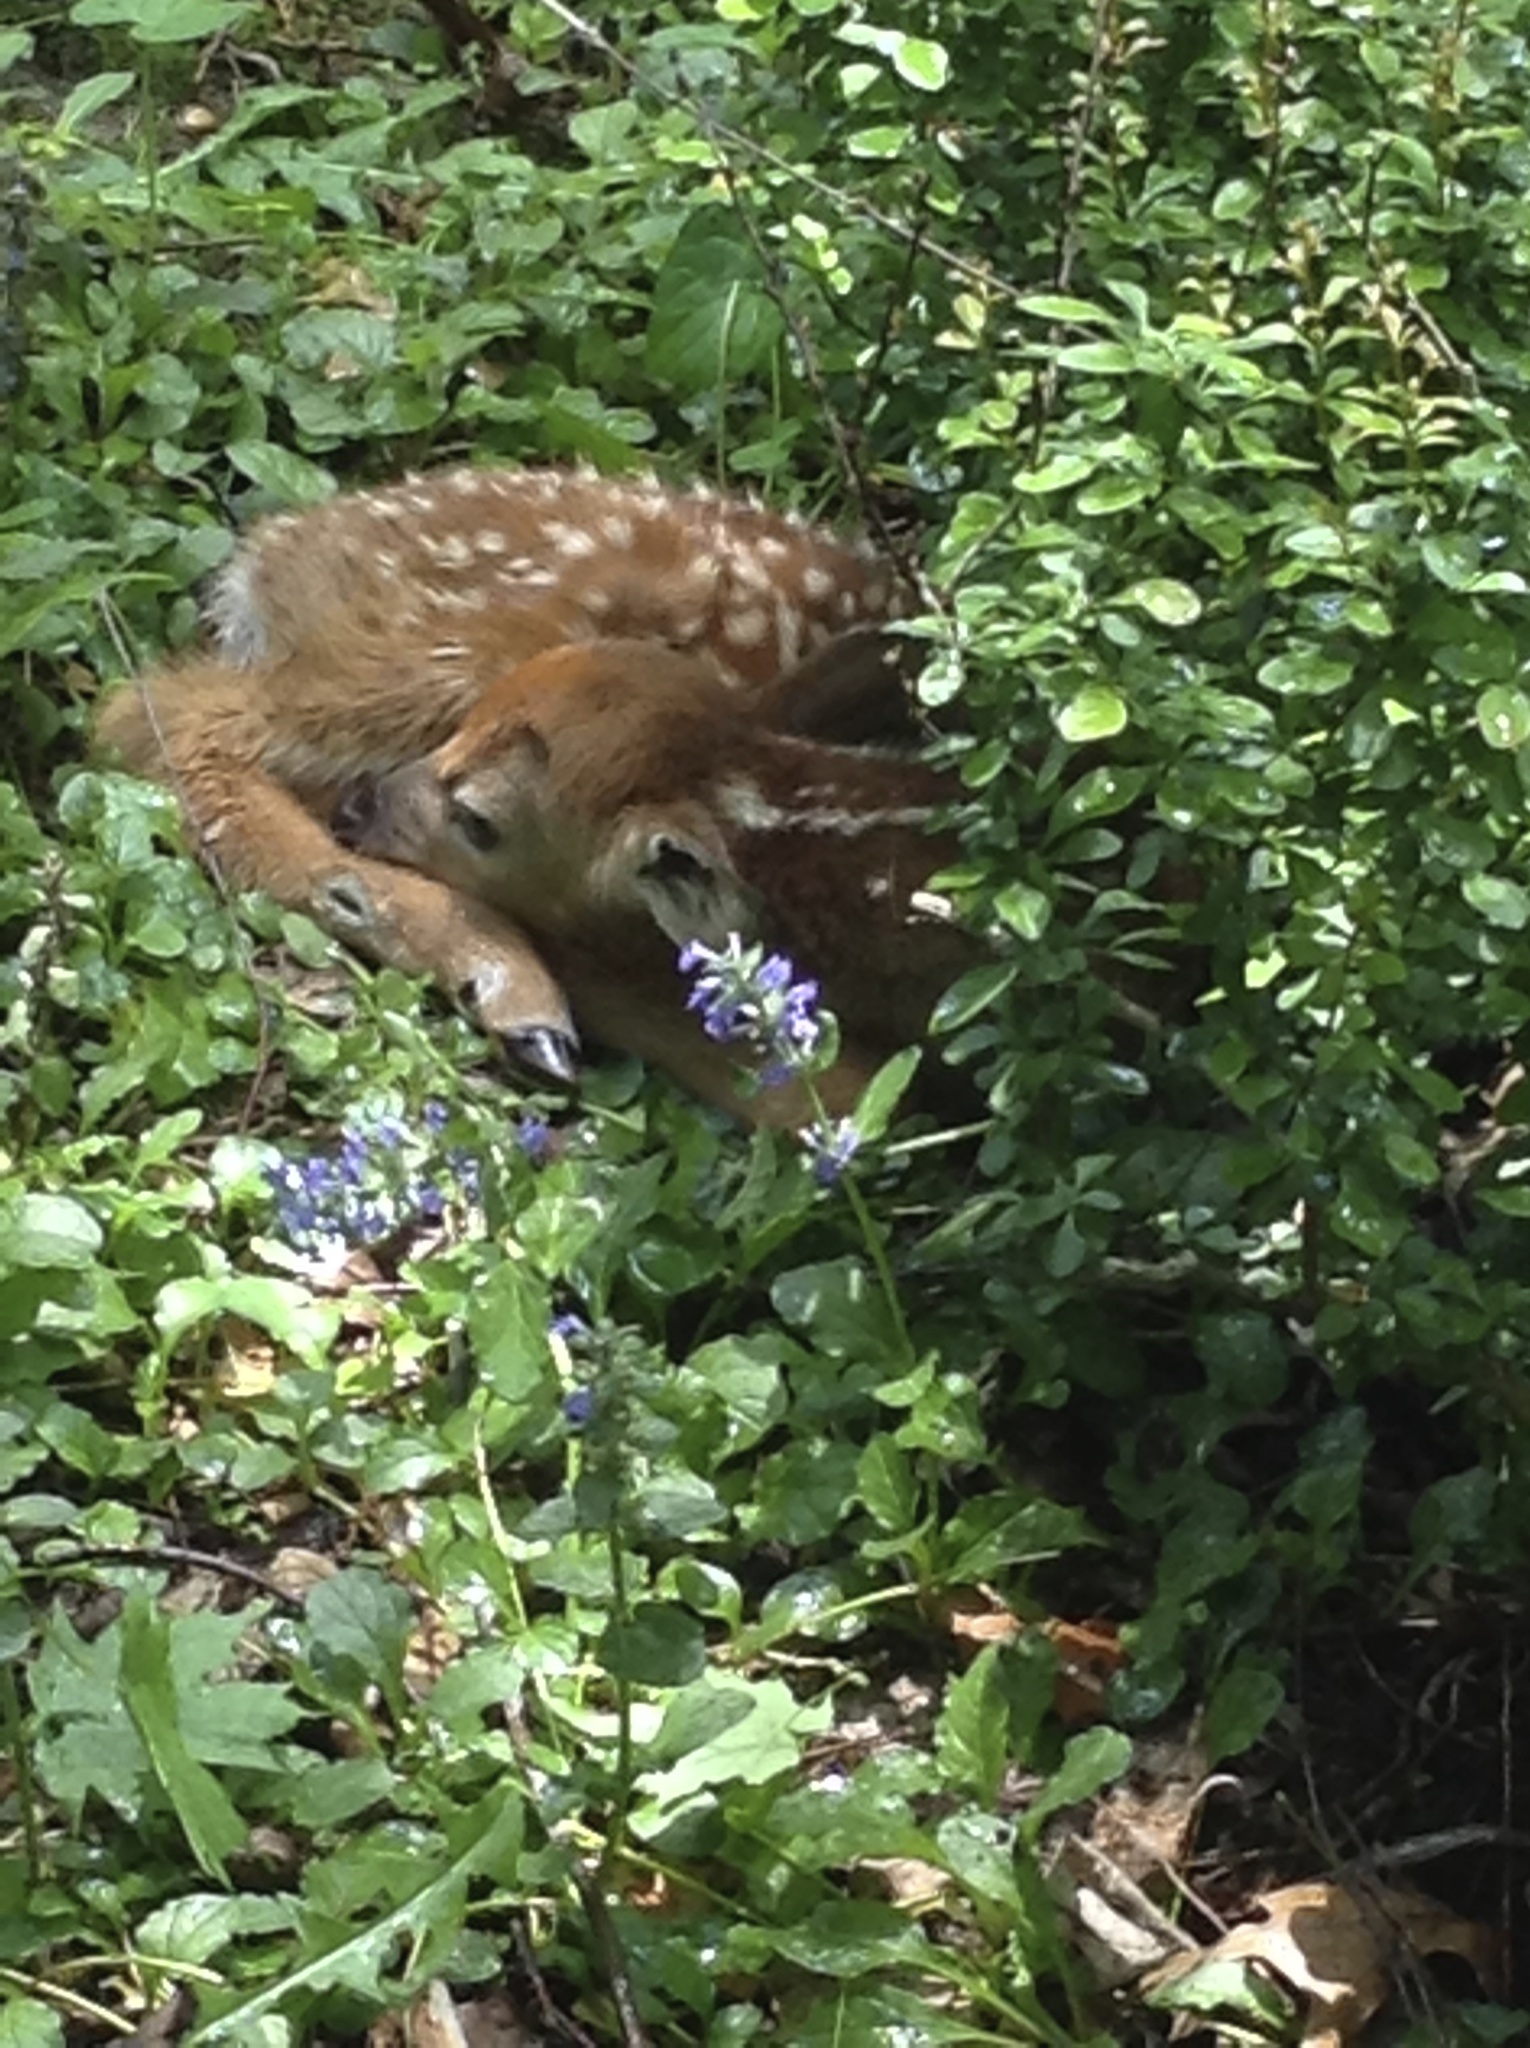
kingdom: Animalia
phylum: Chordata
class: Mammalia
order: Artiodactyla
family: Cervidae
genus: Odocoileus
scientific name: Odocoileus virginianus
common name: White-tailed deer
